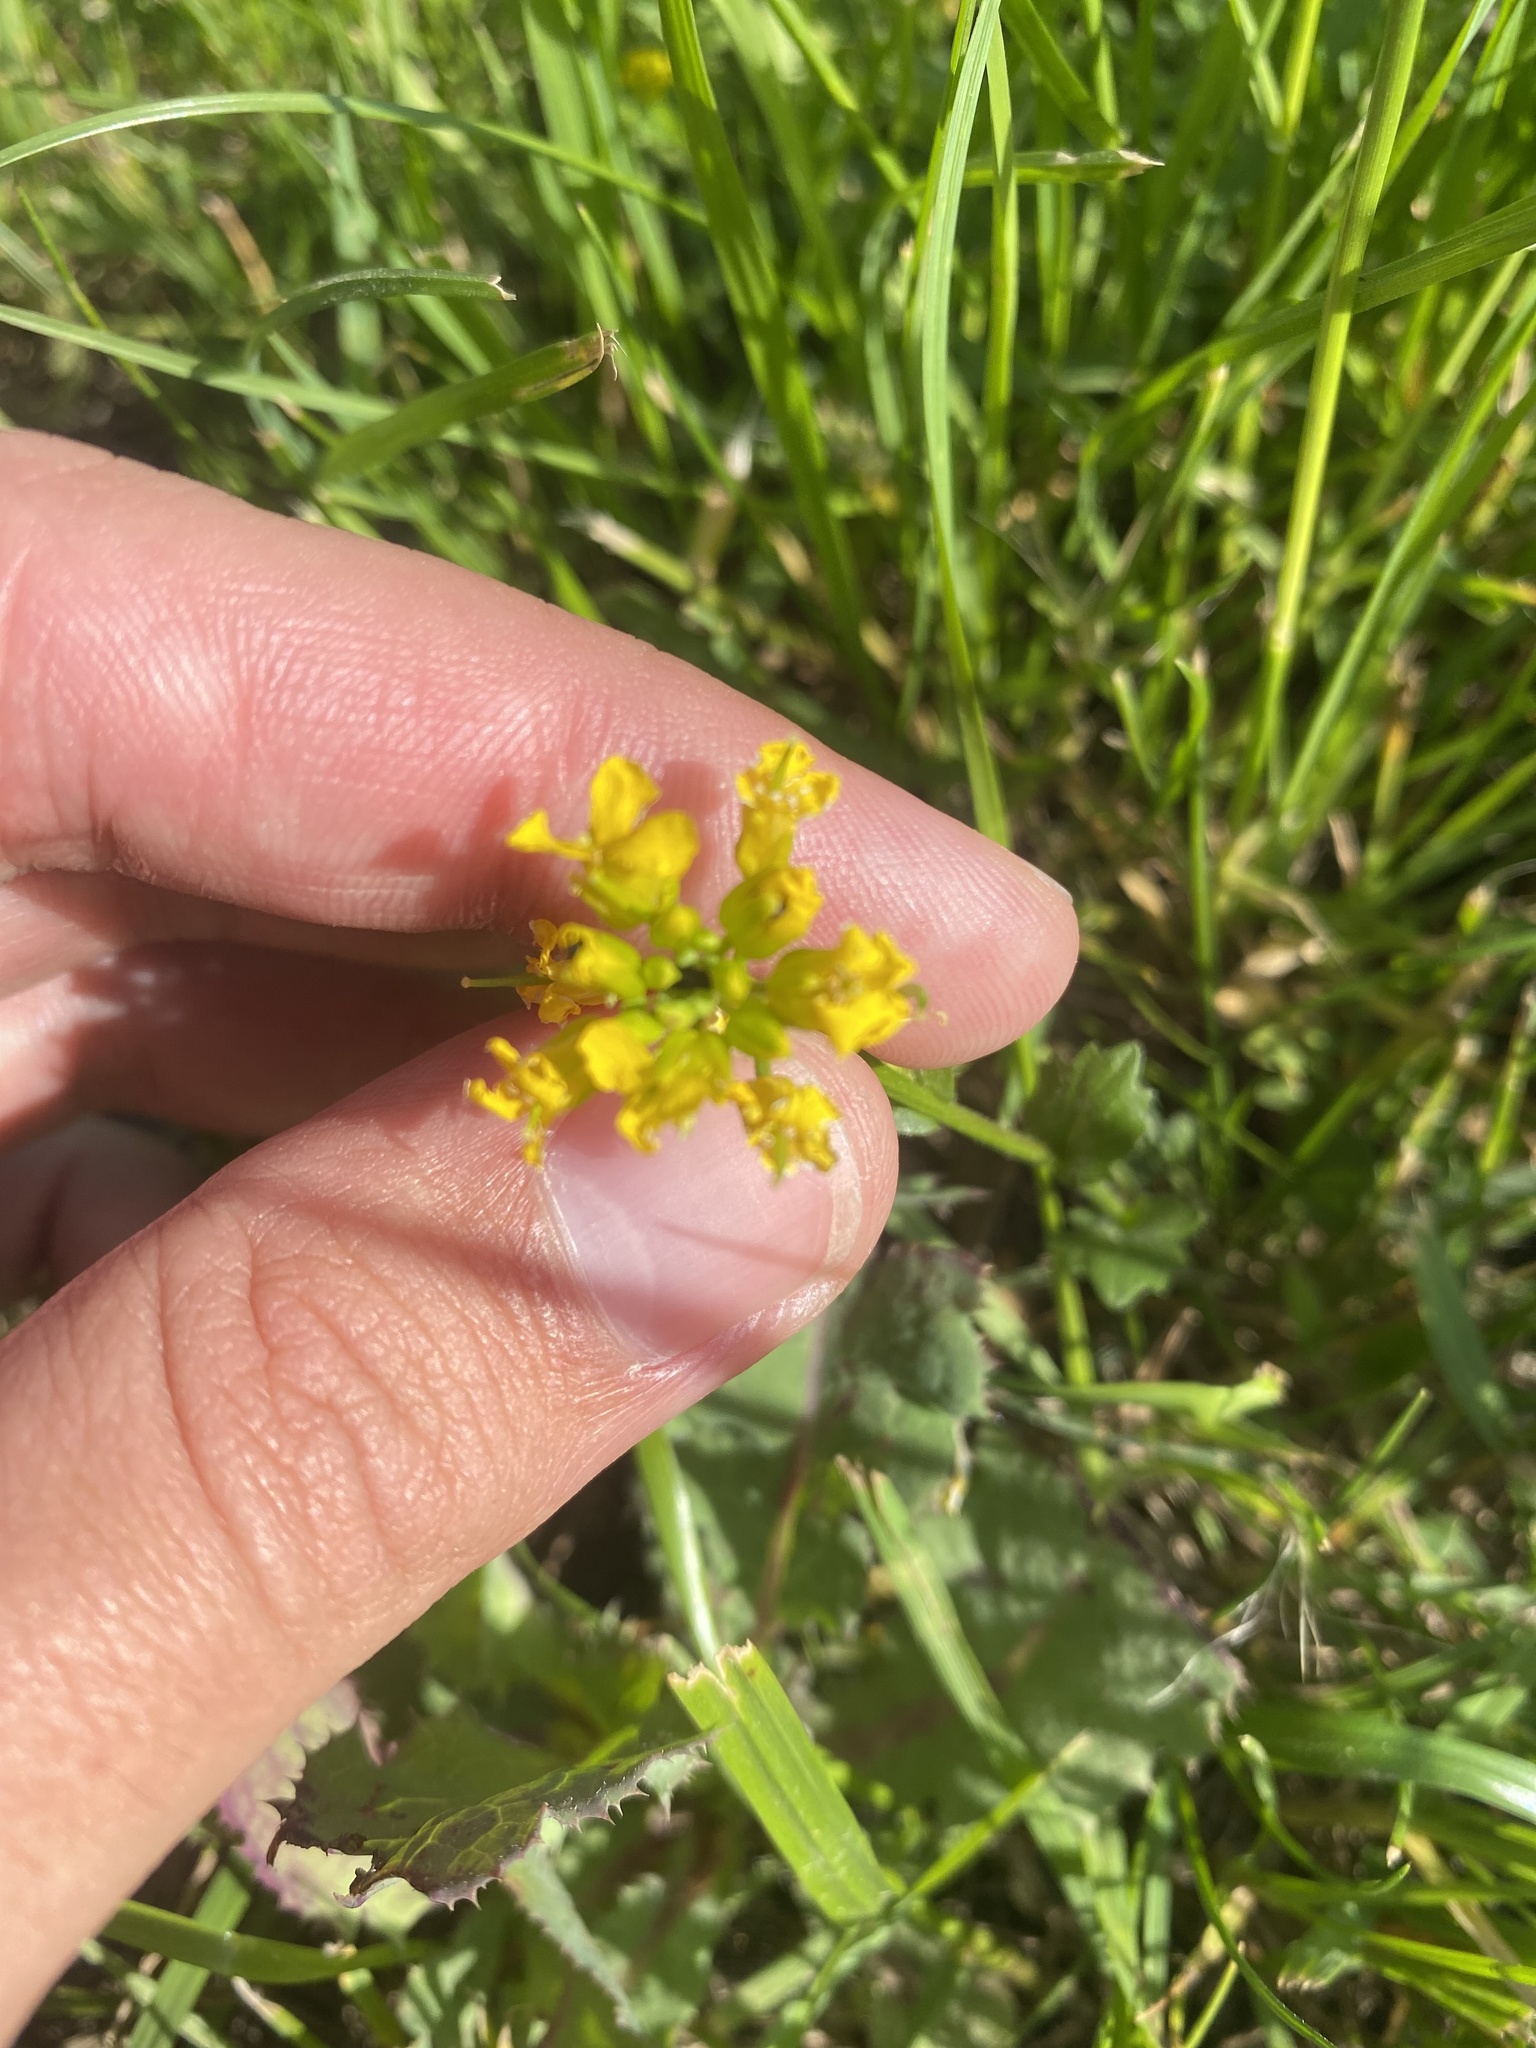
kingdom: Plantae
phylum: Tracheophyta
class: Magnoliopsida
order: Brassicales
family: Brassicaceae
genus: Barbarea
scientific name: Barbarea vulgaris
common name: Cressy-greens
